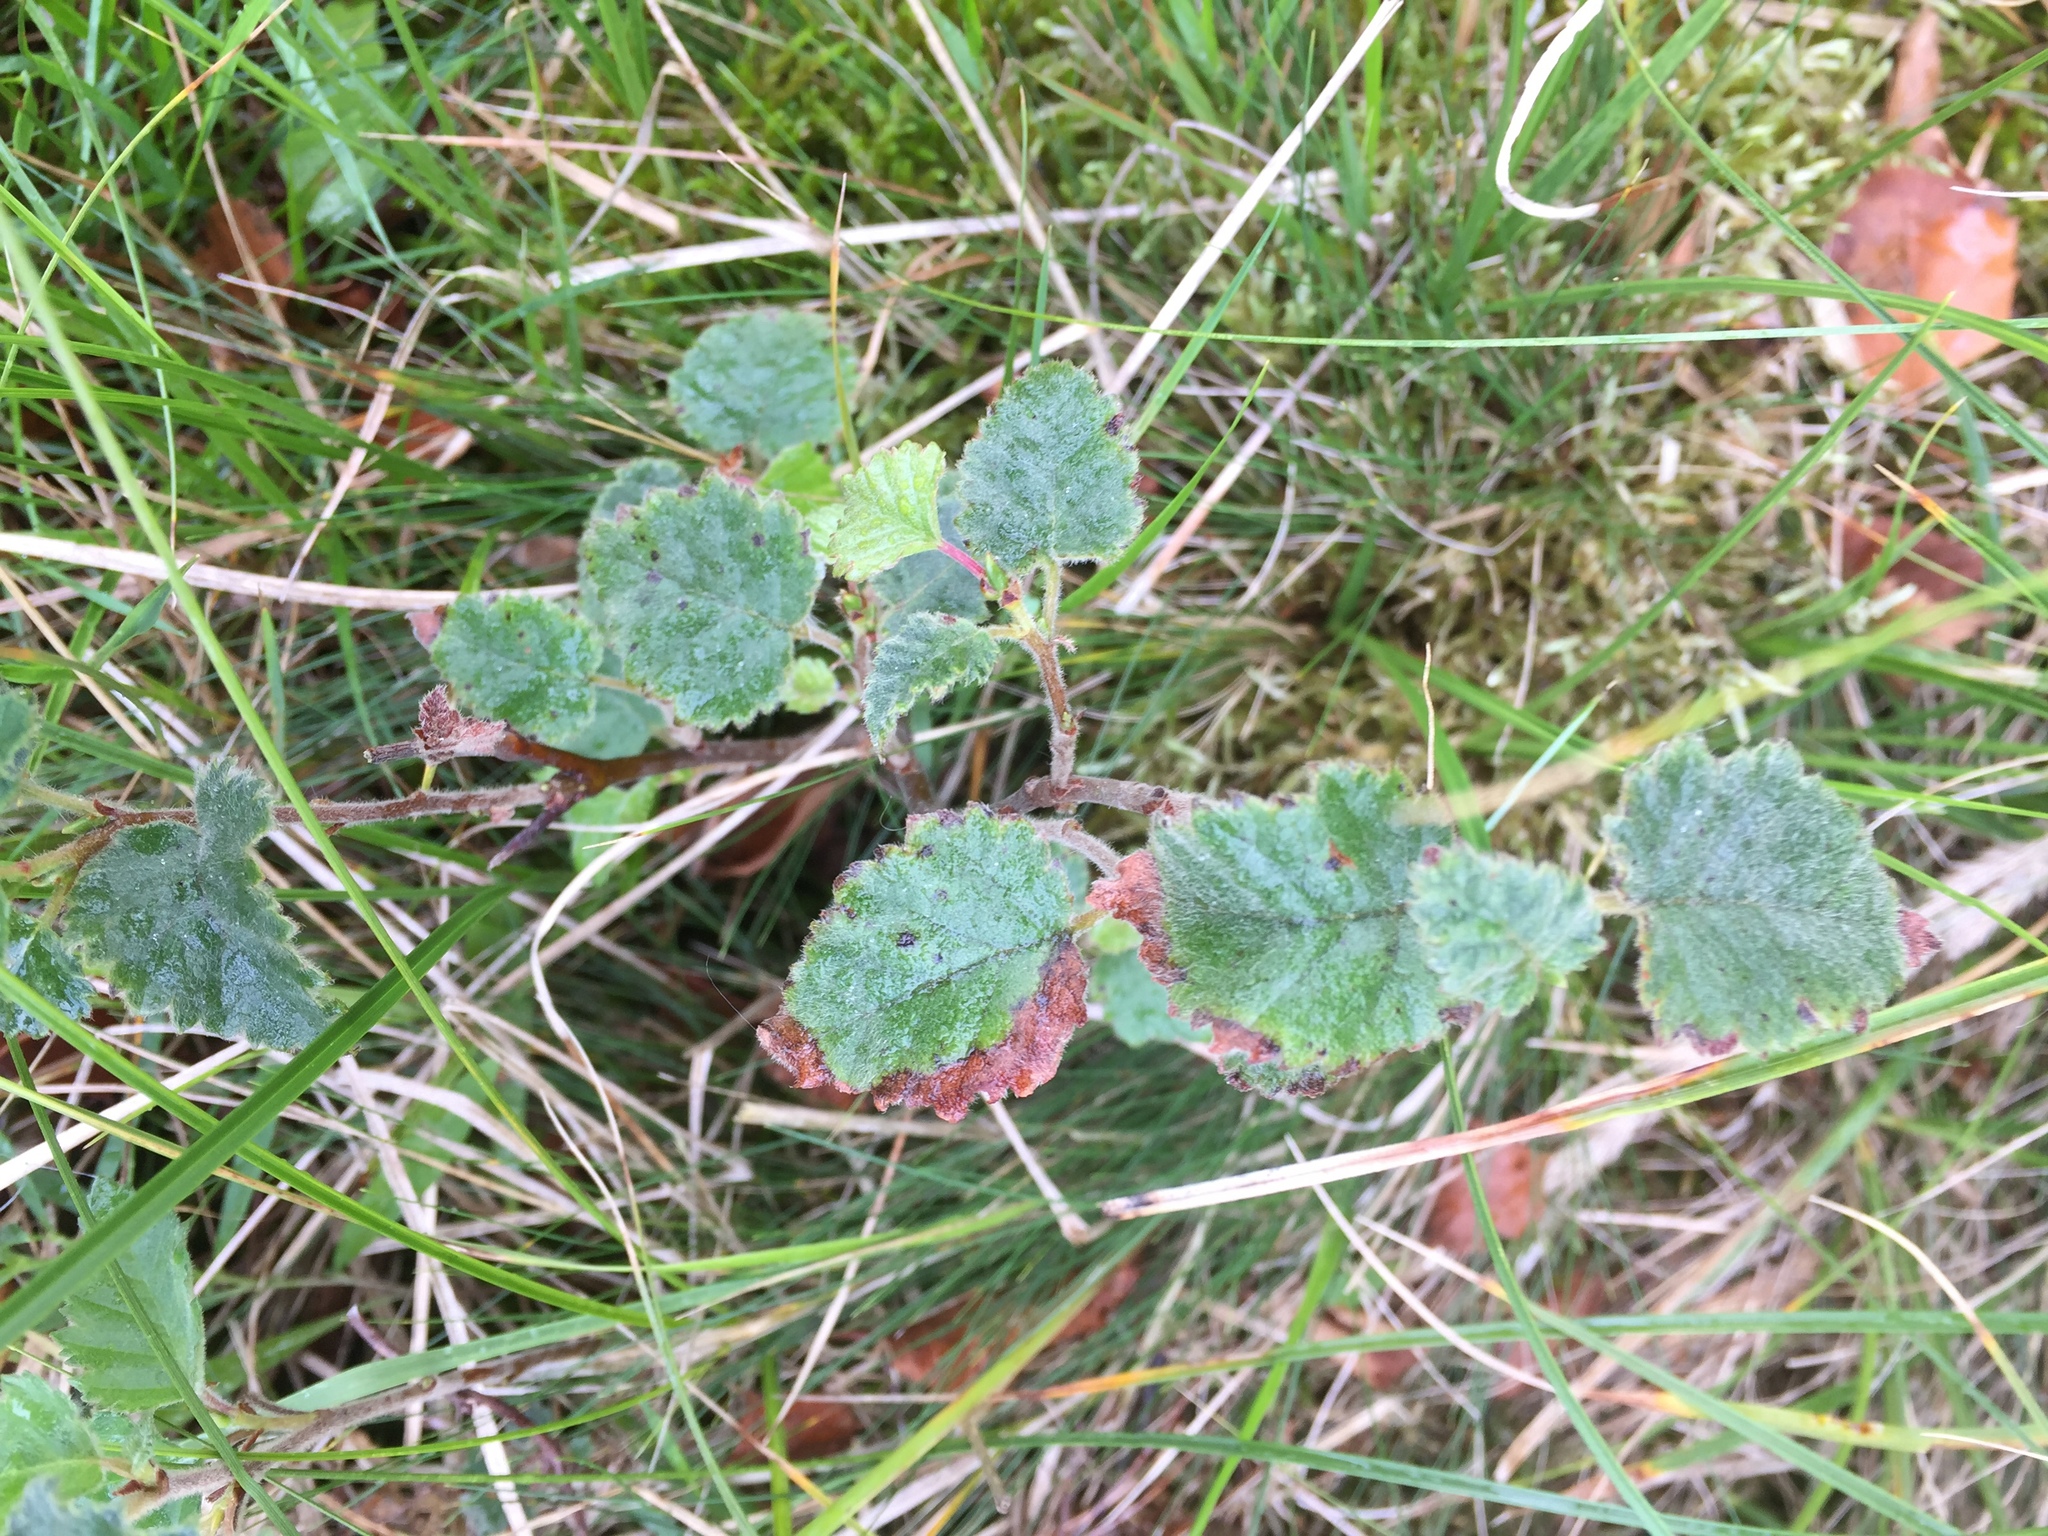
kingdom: Plantae
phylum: Tracheophyta
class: Magnoliopsida
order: Fagales
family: Betulaceae
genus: Betula
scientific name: Betula pubescens
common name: Downy birch
